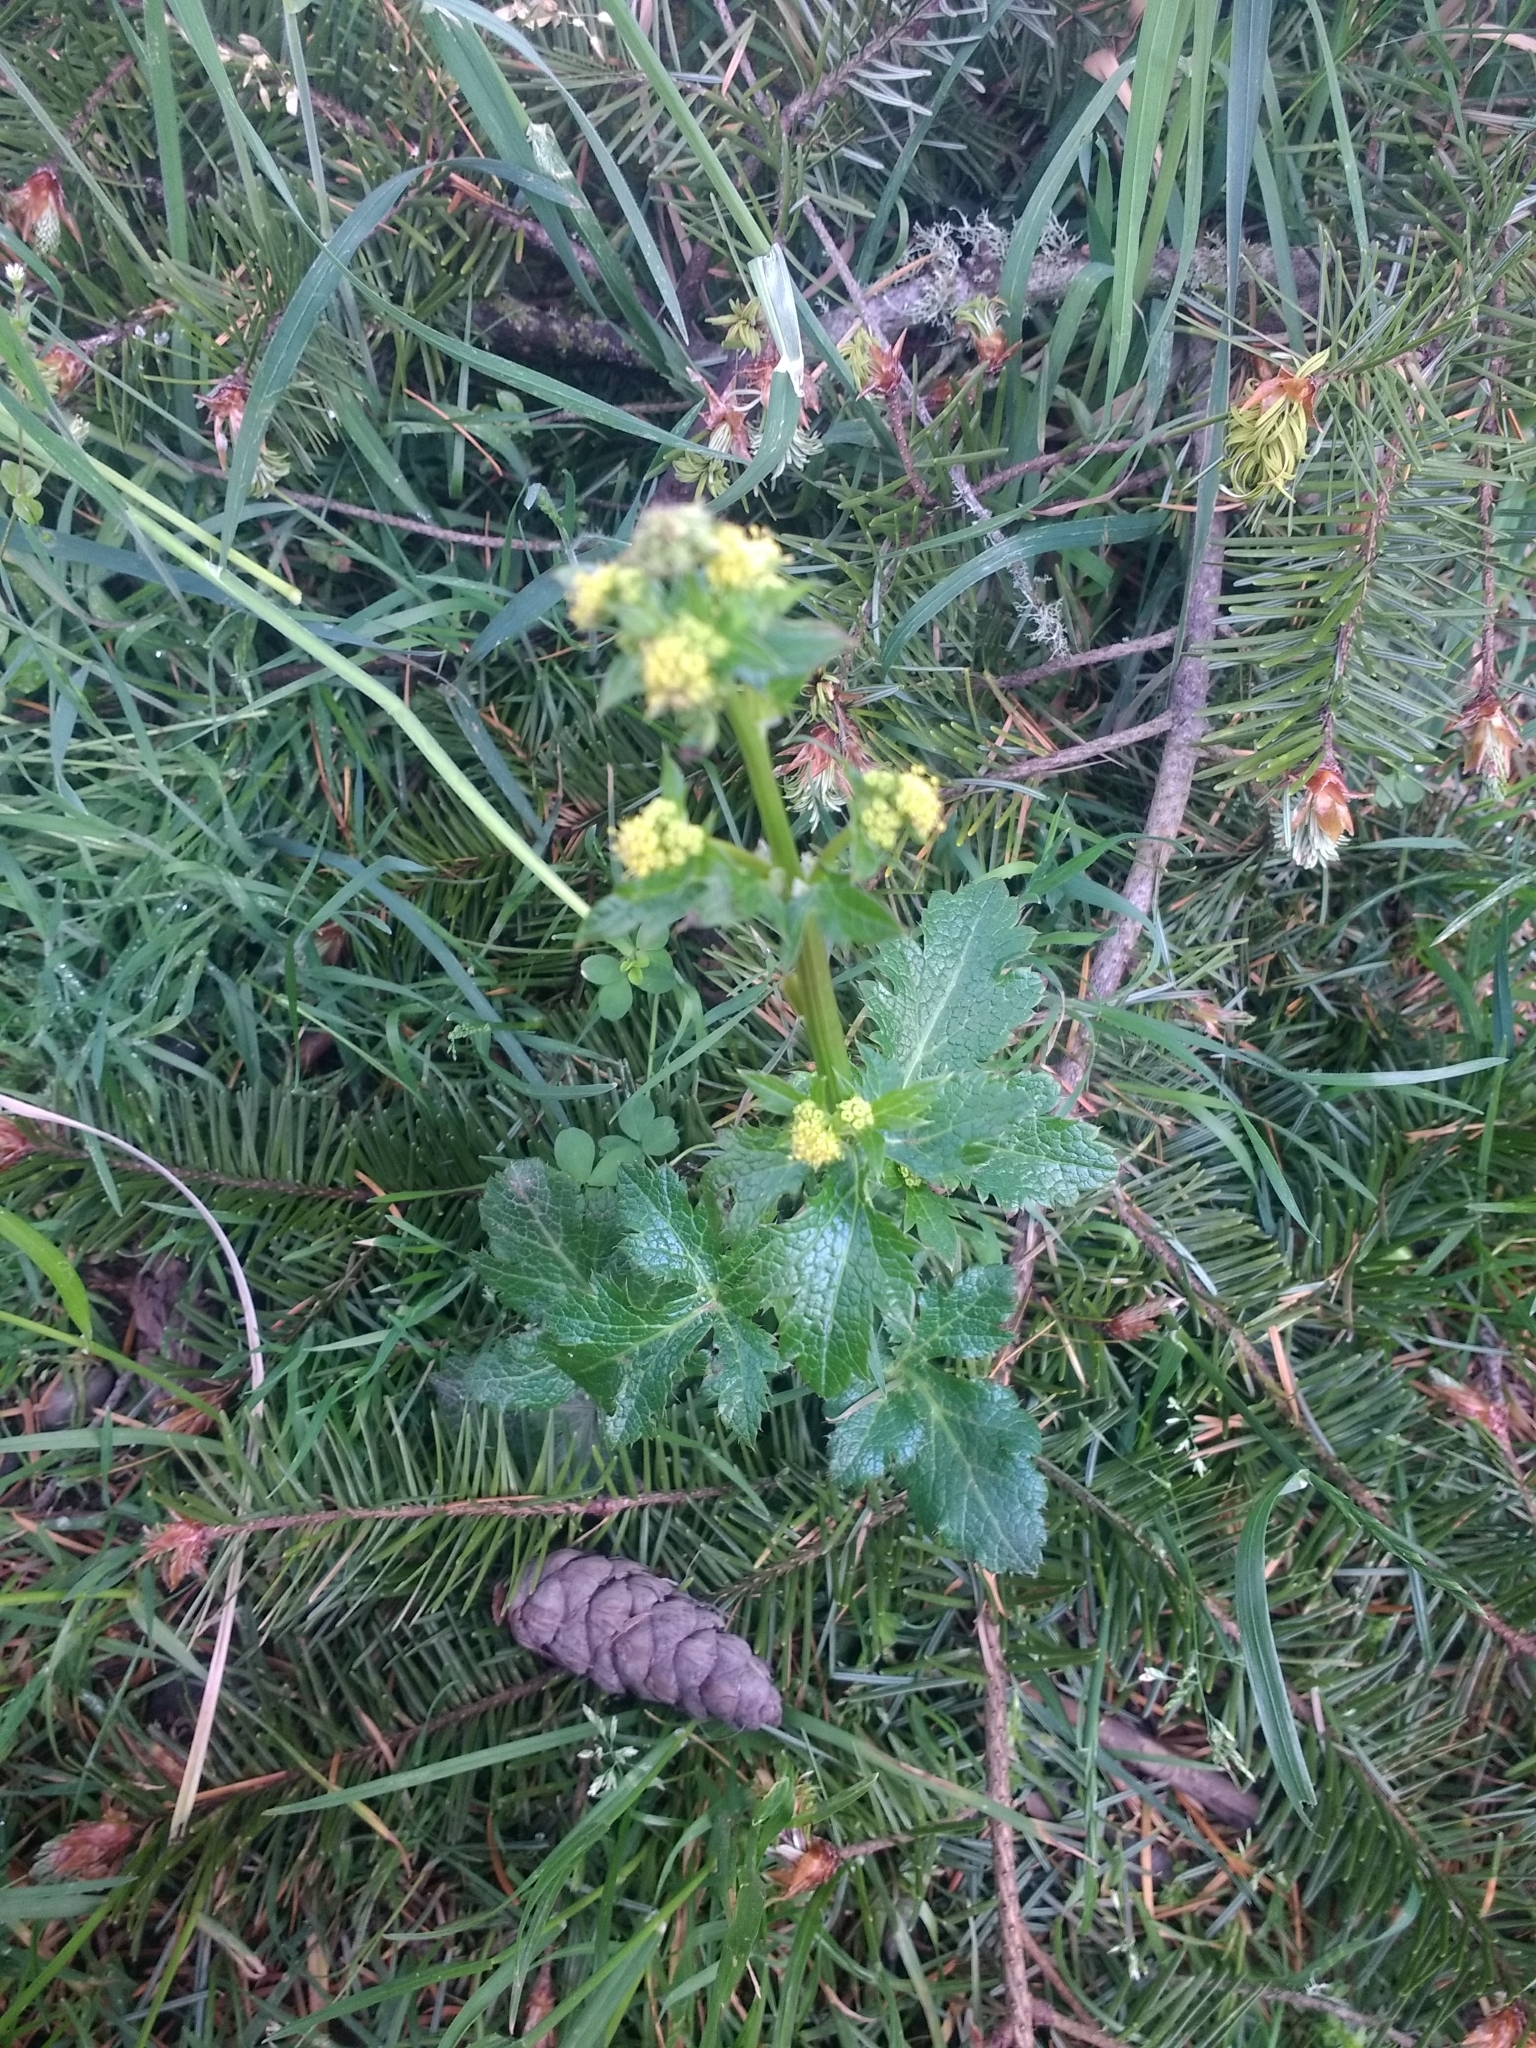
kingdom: Plantae
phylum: Tracheophyta
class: Magnoliopsida
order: Apiales
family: Apiaceae
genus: Sanicula
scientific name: Sanicula crassicaulis
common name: Western snakeroot
